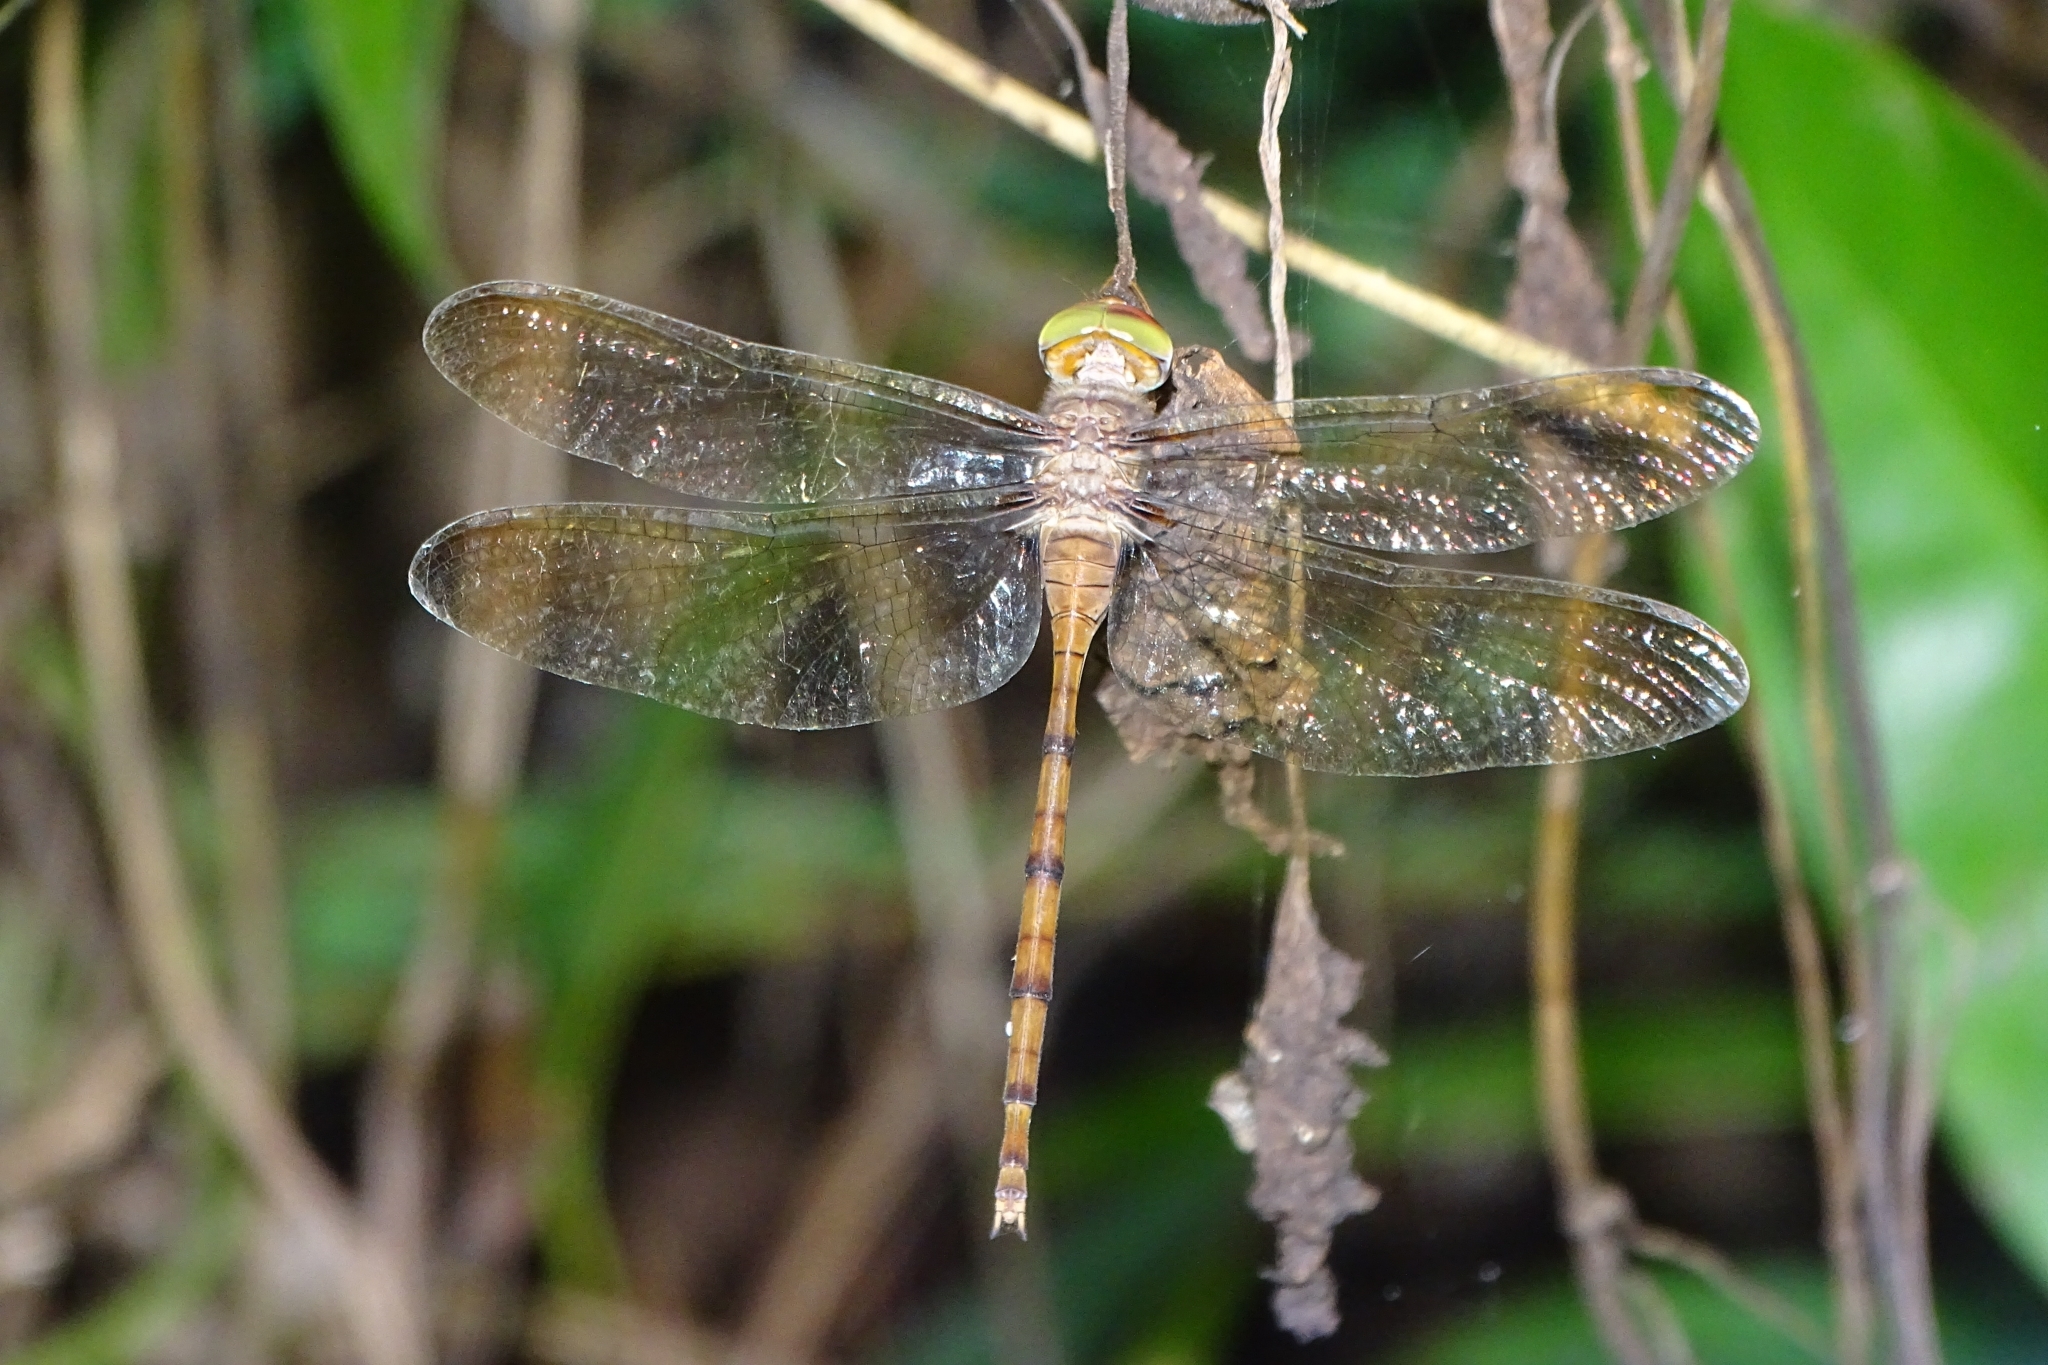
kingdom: Animalia
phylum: Arthropoda
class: Insecta
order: Odonata
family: Libellulidae
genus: Zyxomma
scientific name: Zyxomma petiolatum
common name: Dingy dusk-darter
